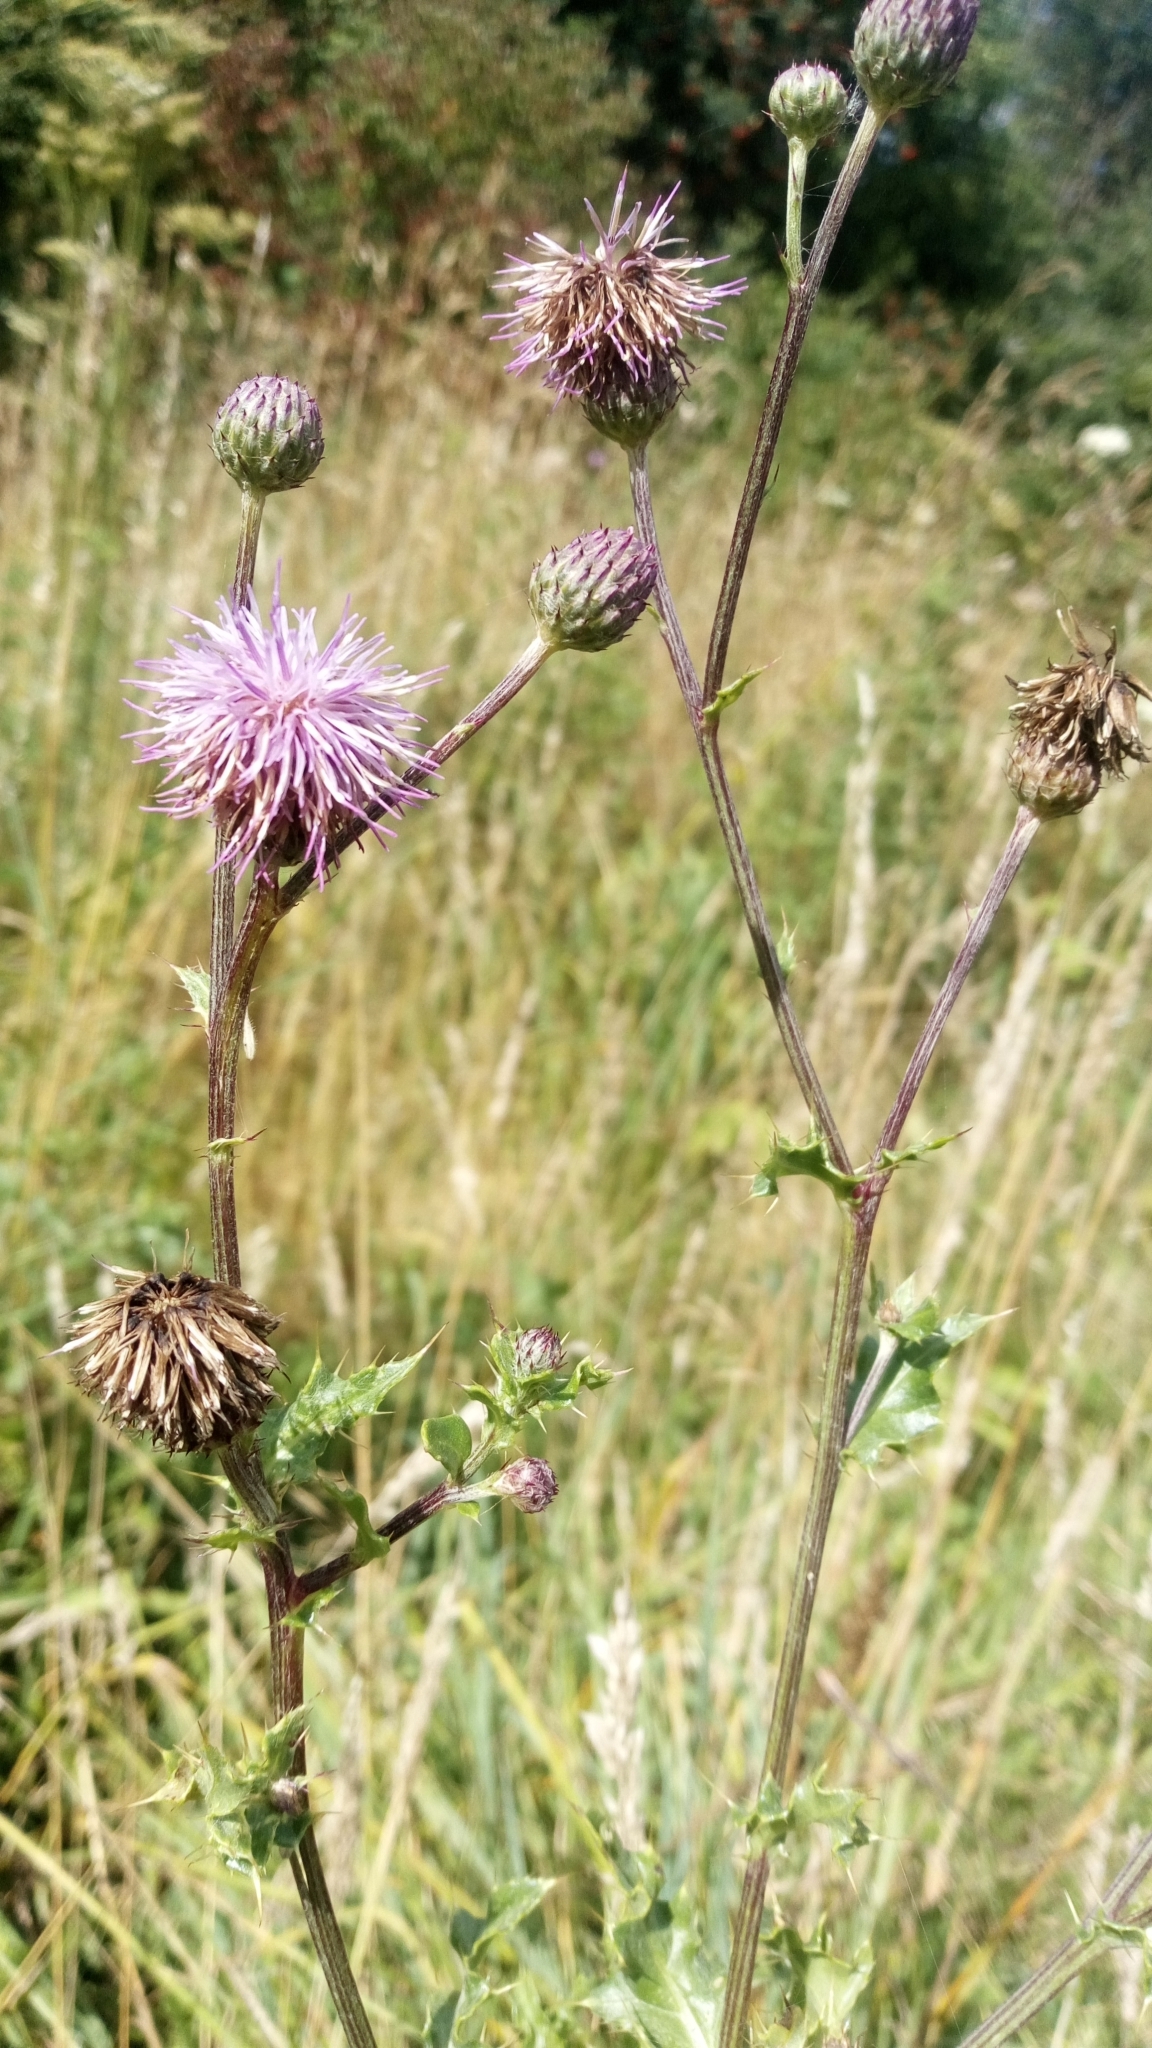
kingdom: Plantae
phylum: Tracheophyta
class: Magnoliopsida
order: Asterales
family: Asteraceae
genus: Cirsium
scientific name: Cirsium arvense
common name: Creeping thistle
